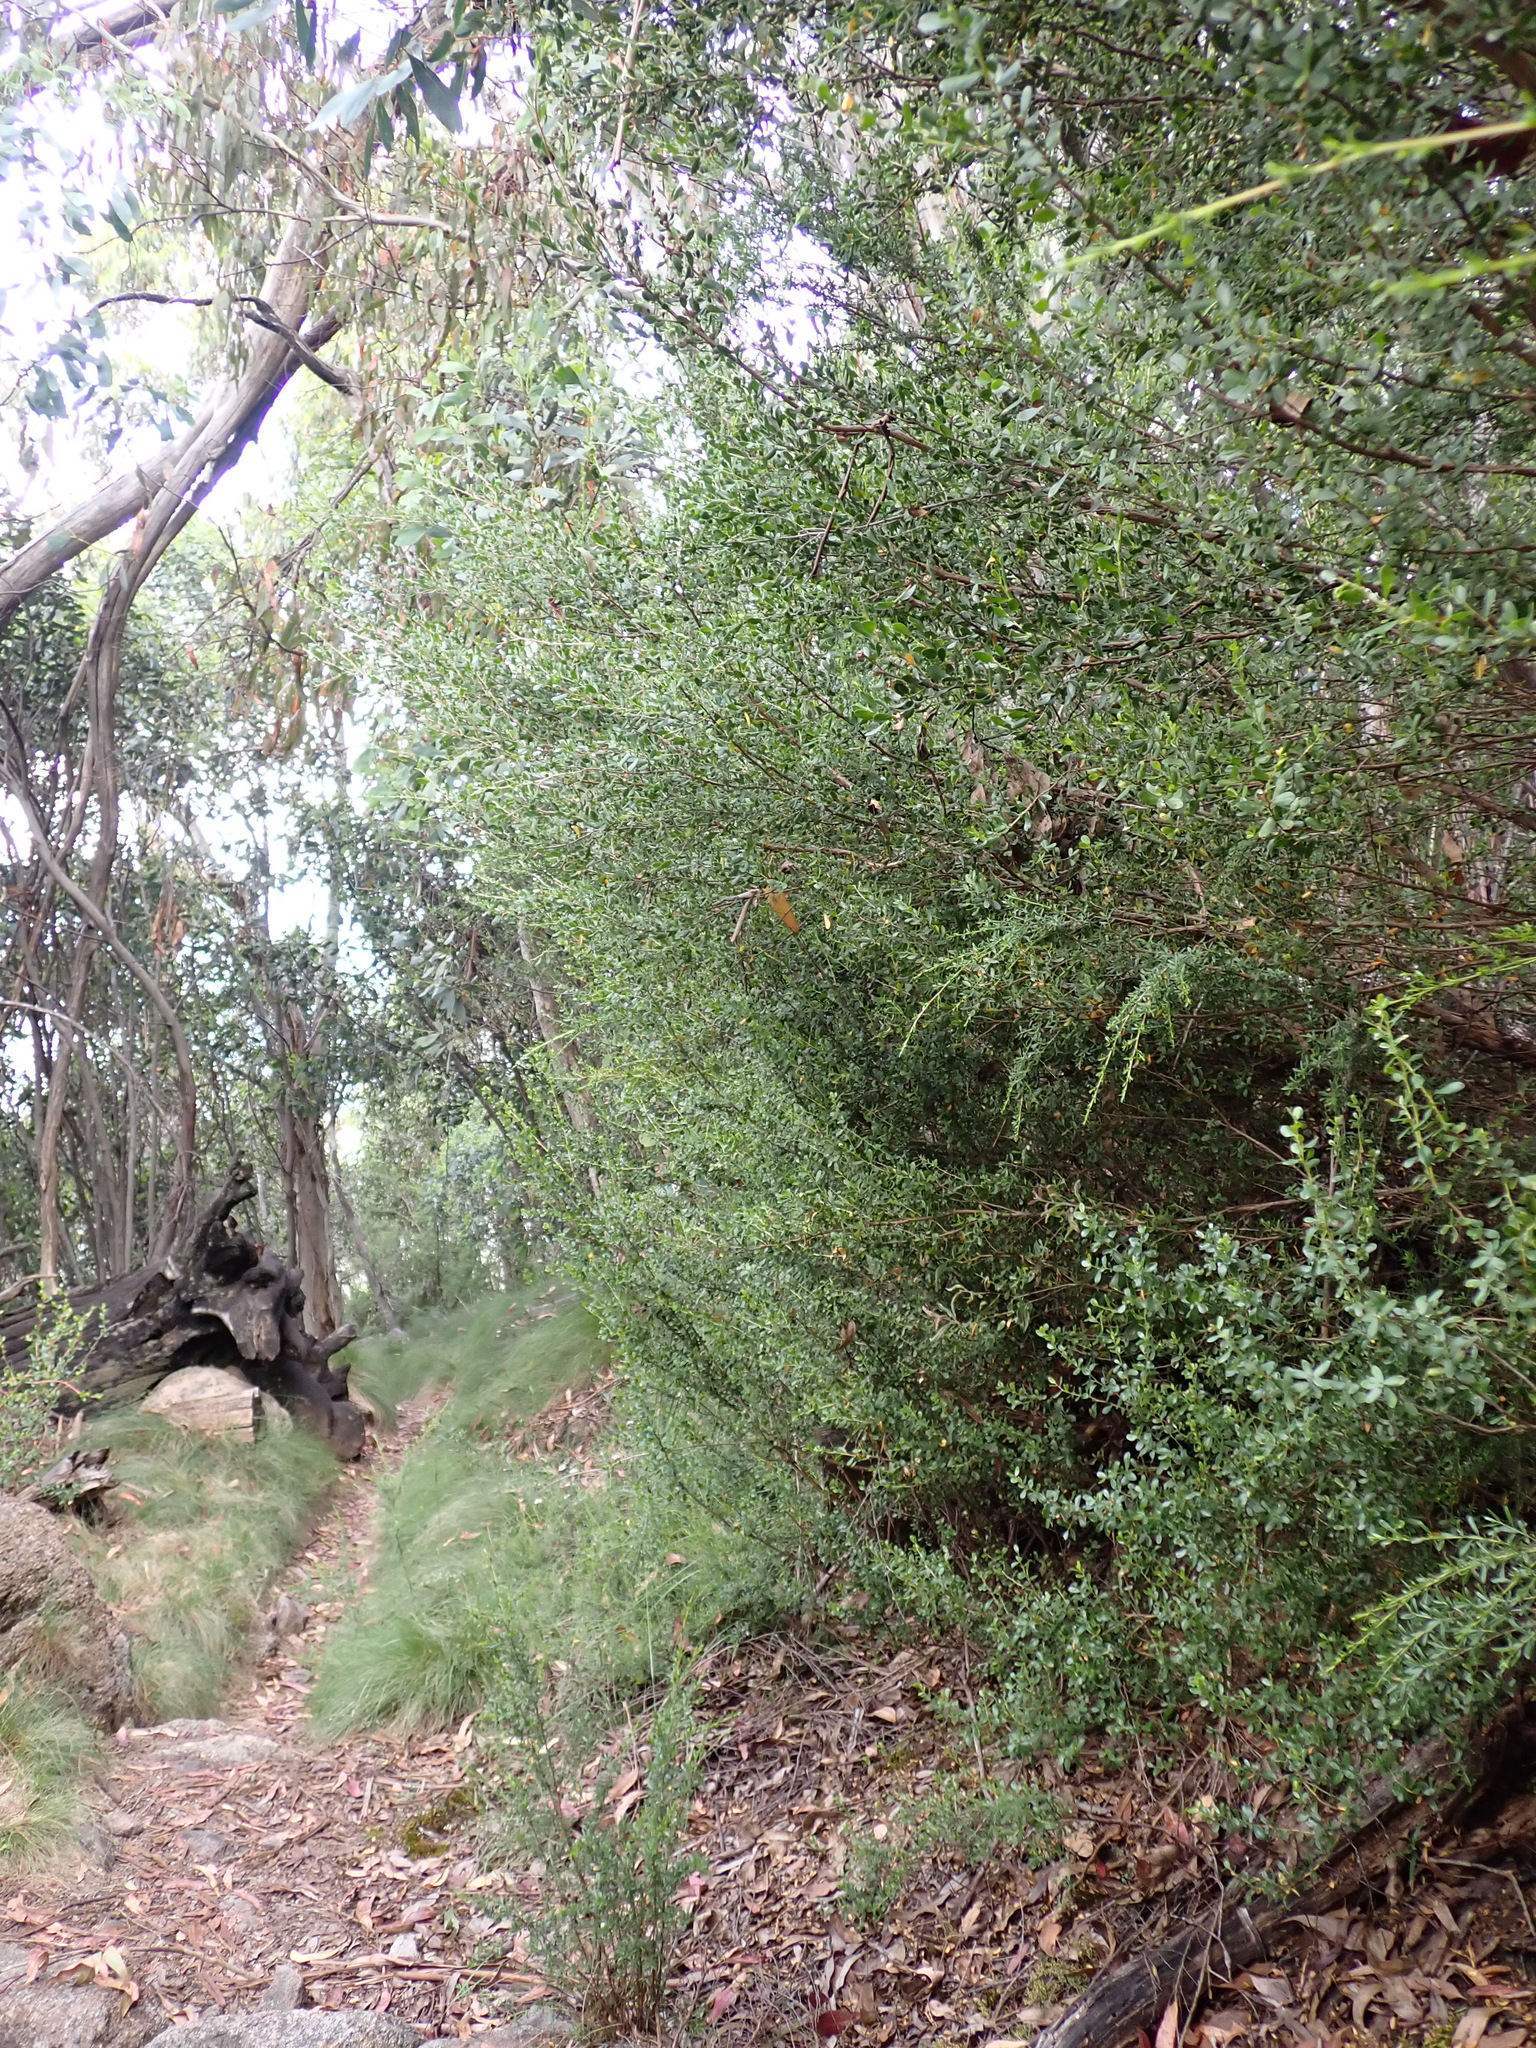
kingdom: Plantae
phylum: Tracheophyta
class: Magnoliopsida
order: Myrtales
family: Myrtaceae
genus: Leptospermum
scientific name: Leptospermum micromyrtus
